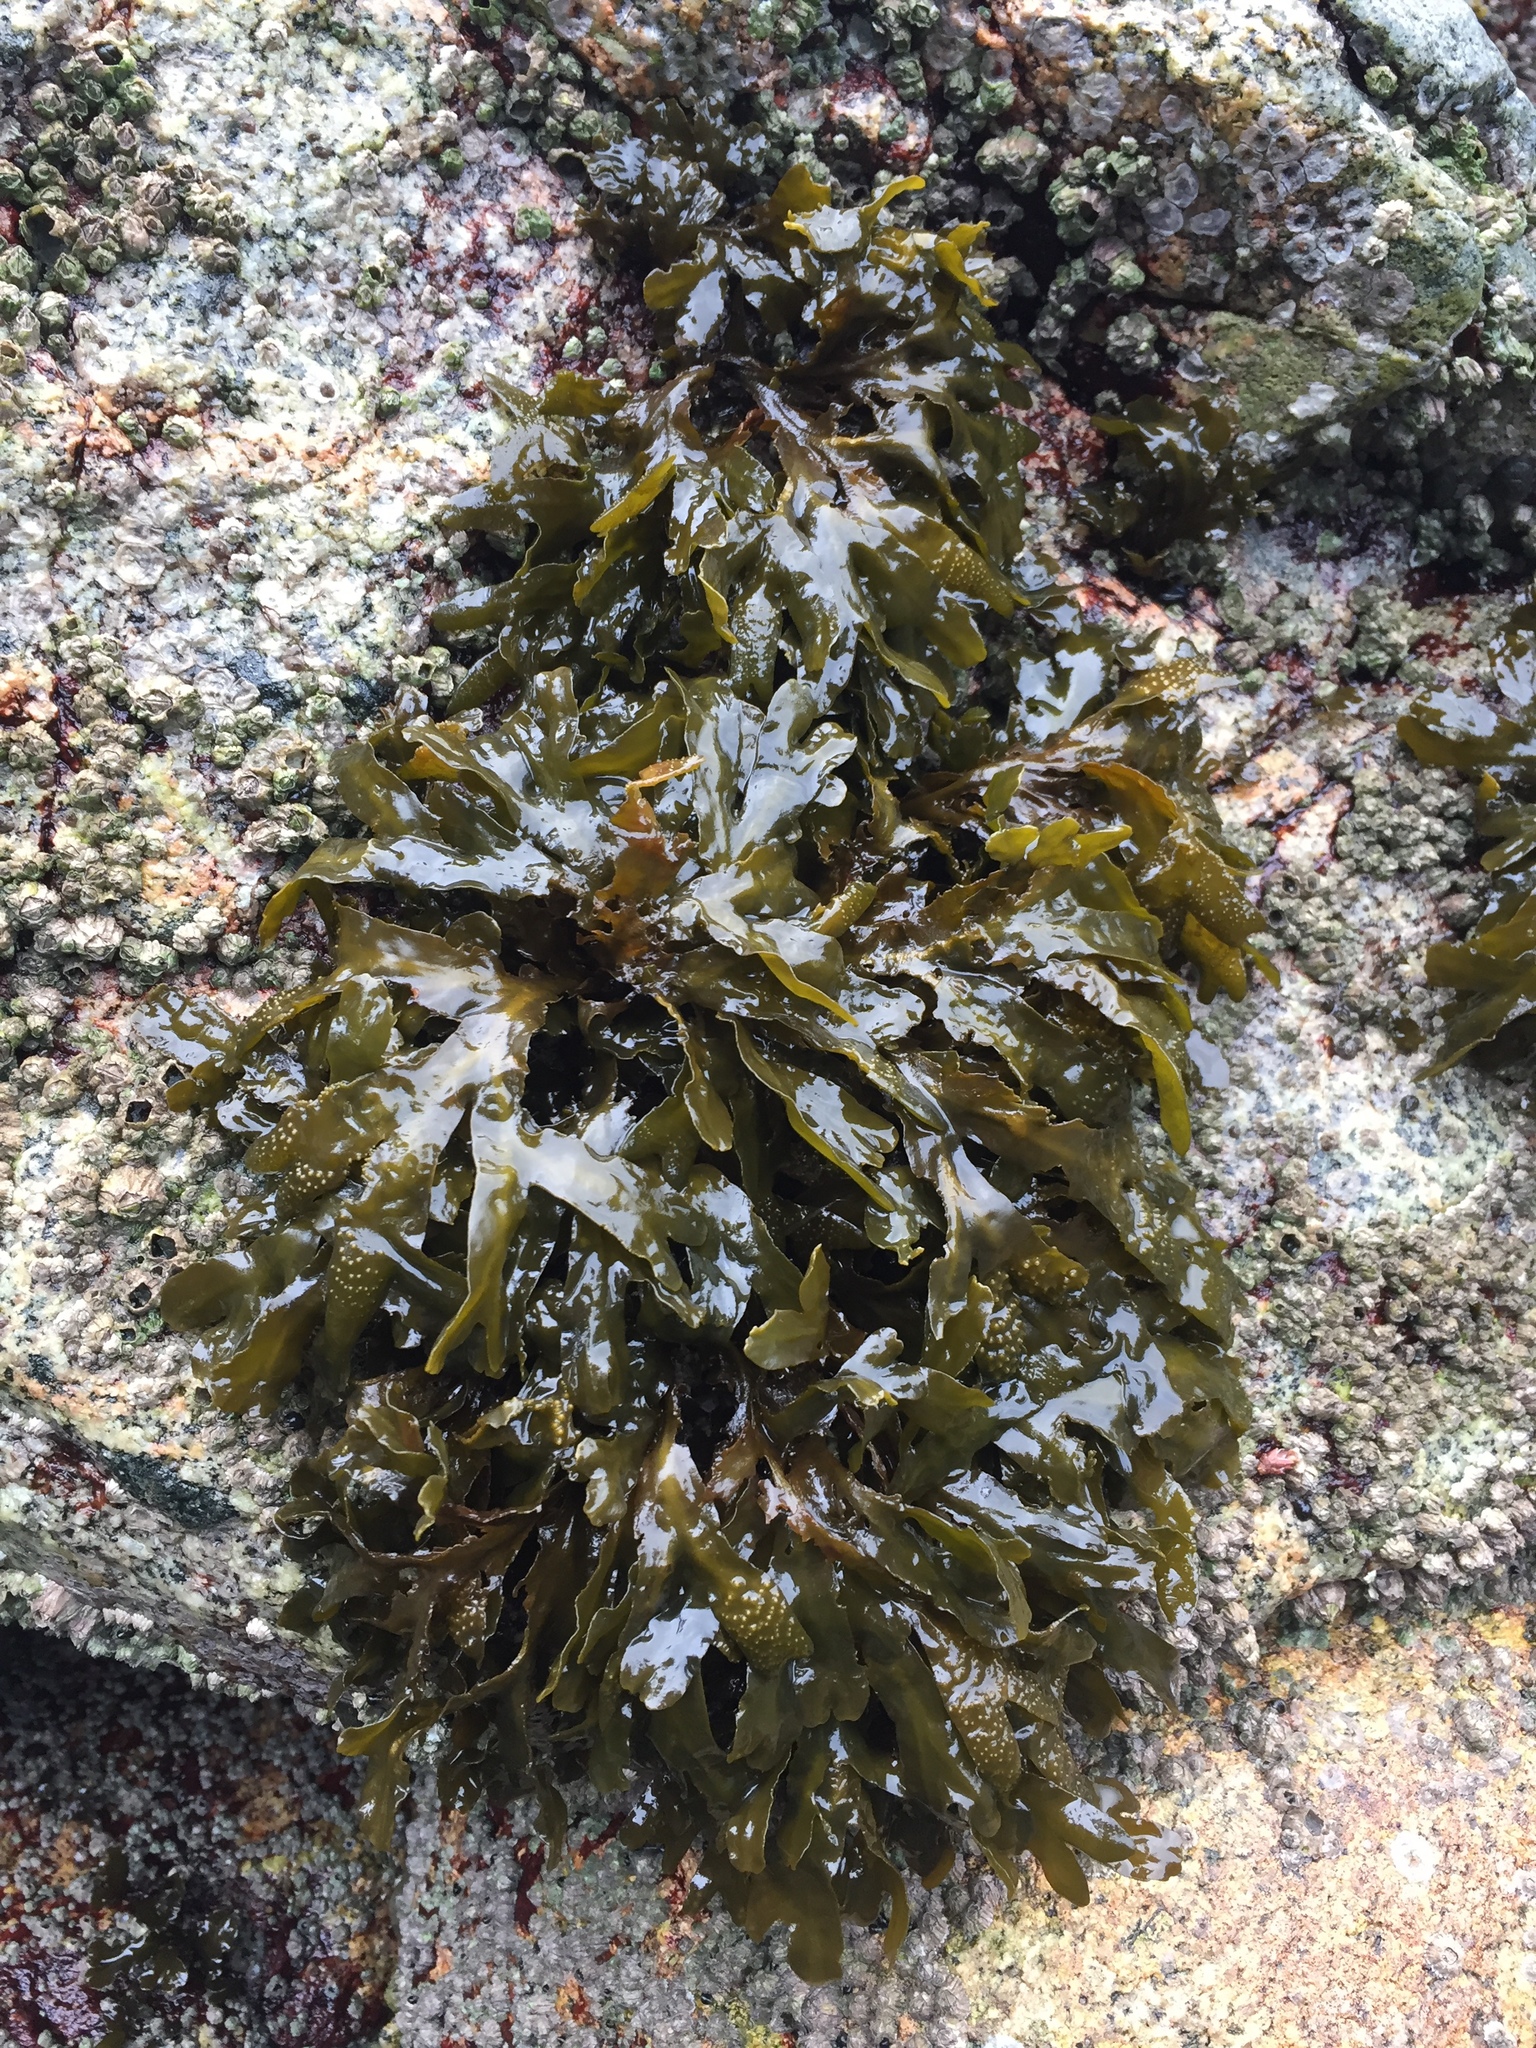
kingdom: Chromista
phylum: Ochrophyta
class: Phaeophyceae
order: Fucales
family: Fucaceae
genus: Fucus
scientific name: Fucus distichus
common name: Rockweed
